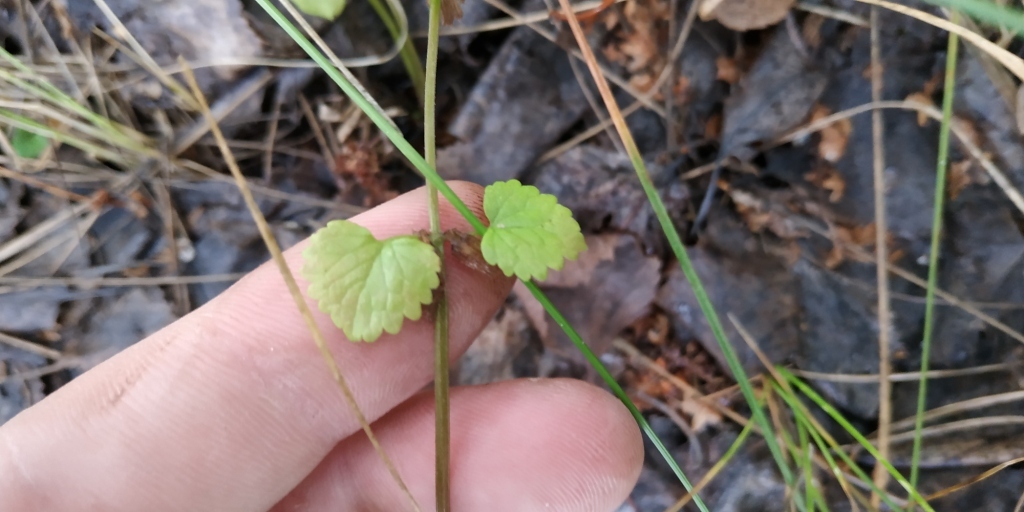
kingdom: Plantae
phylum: Tracheophyta
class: Magnoliopsida
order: Lamiales
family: Lamiaceae
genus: Glechoma
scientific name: Glechoma hederacea
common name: Ground ivy
